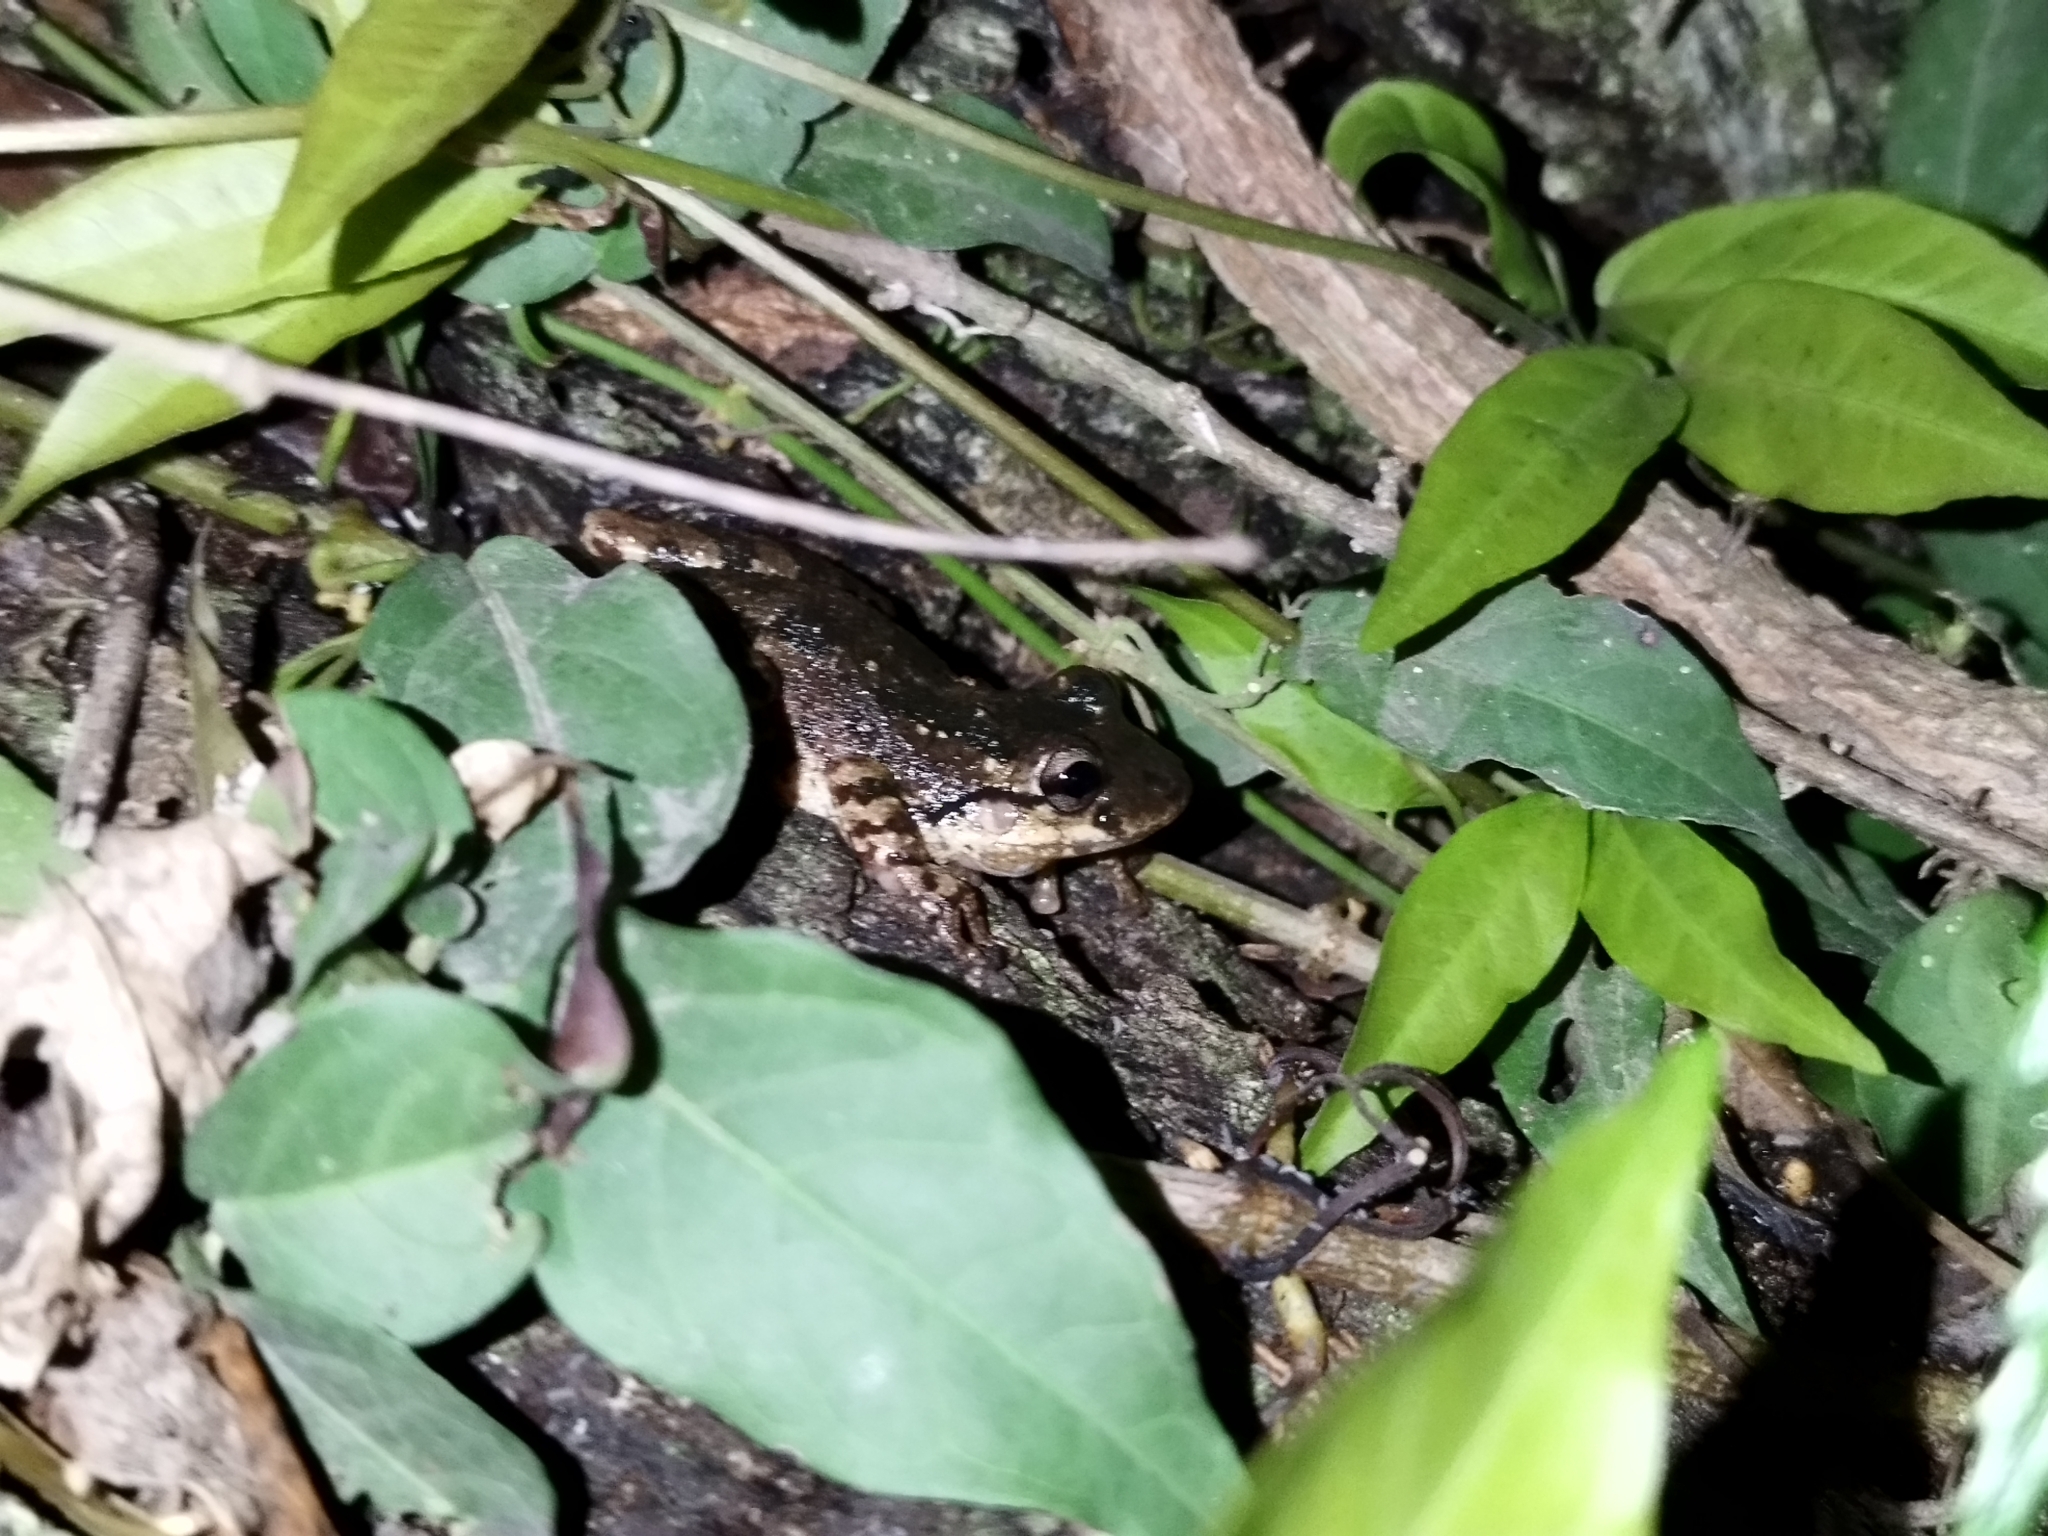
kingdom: Animalia
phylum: Chordata
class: Amphibia
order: Anura
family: Hylidae
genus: Scinax
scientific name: Scinax granulatus
